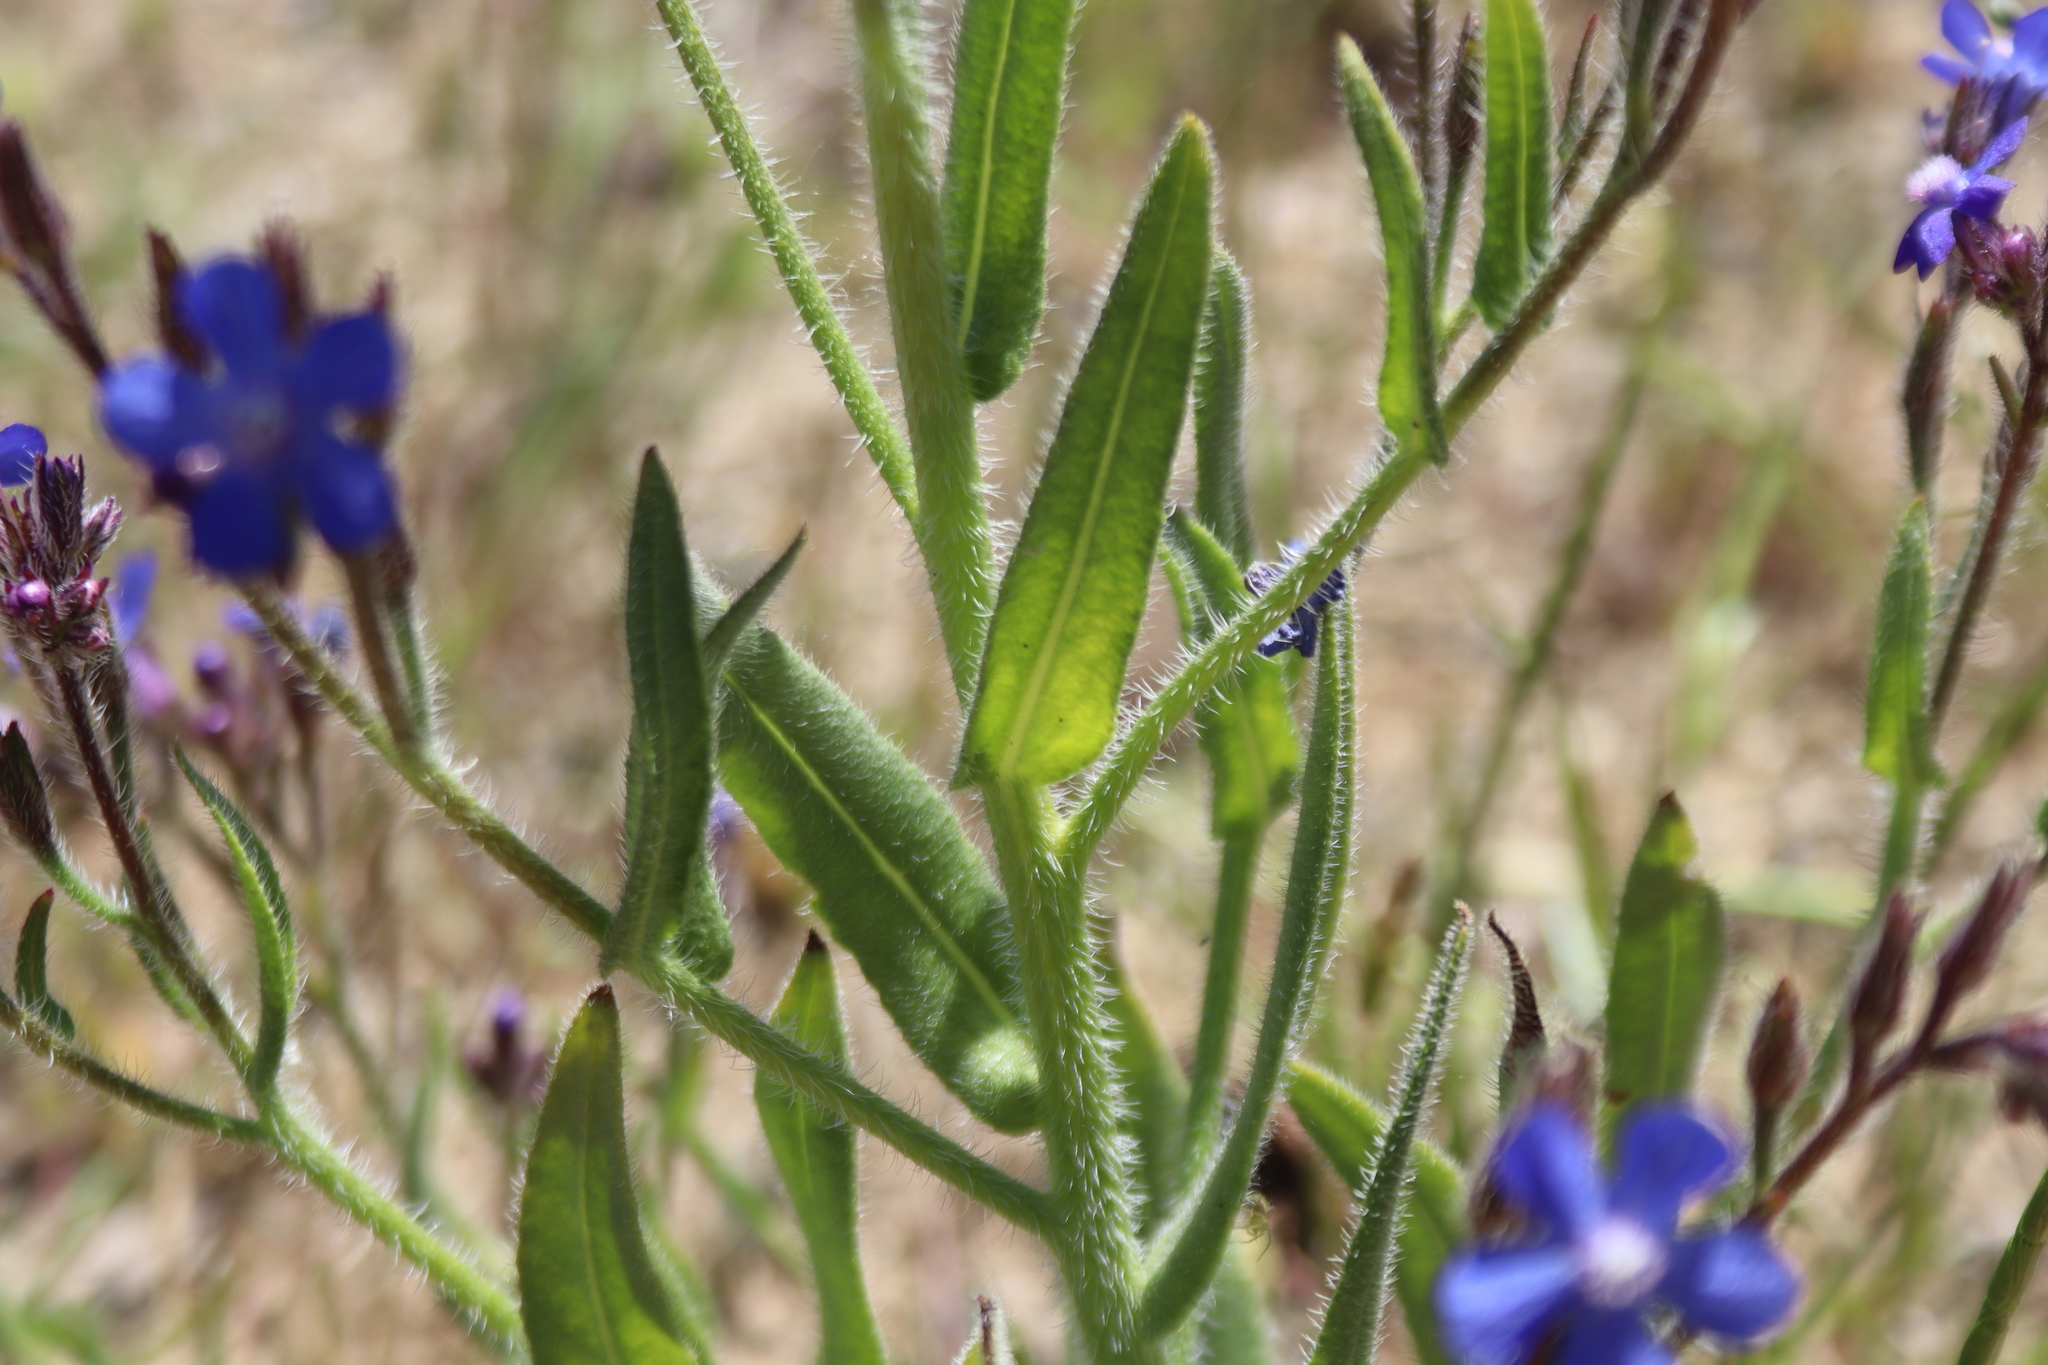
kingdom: Plantae
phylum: Tracheophyta
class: Magnoliopsida
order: Boraginales
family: Boraginaceae
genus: Anchusa
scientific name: Anchusa azurea
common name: Garden anchusa
